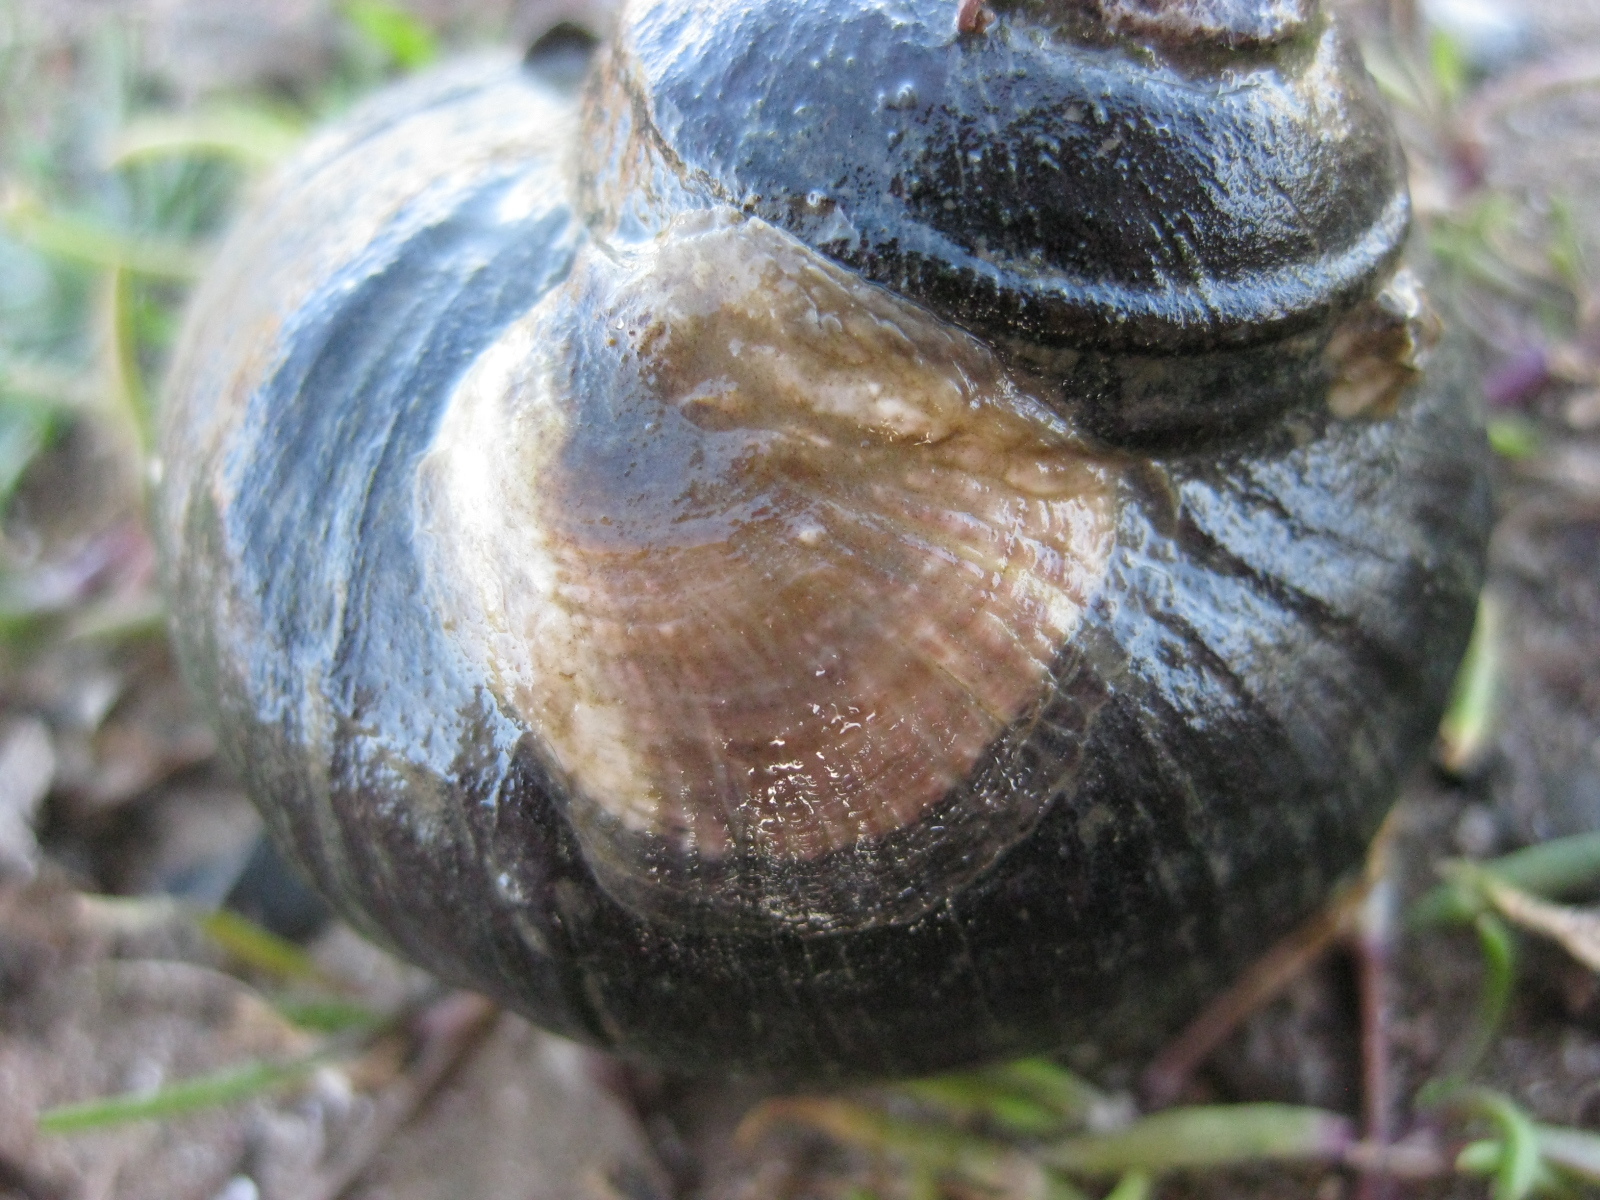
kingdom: Animalia
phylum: Mollusca
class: Bivalvia
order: Ostreida
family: Ostreidae
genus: Magallana
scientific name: Magallana gigas
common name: Pacific oyster
